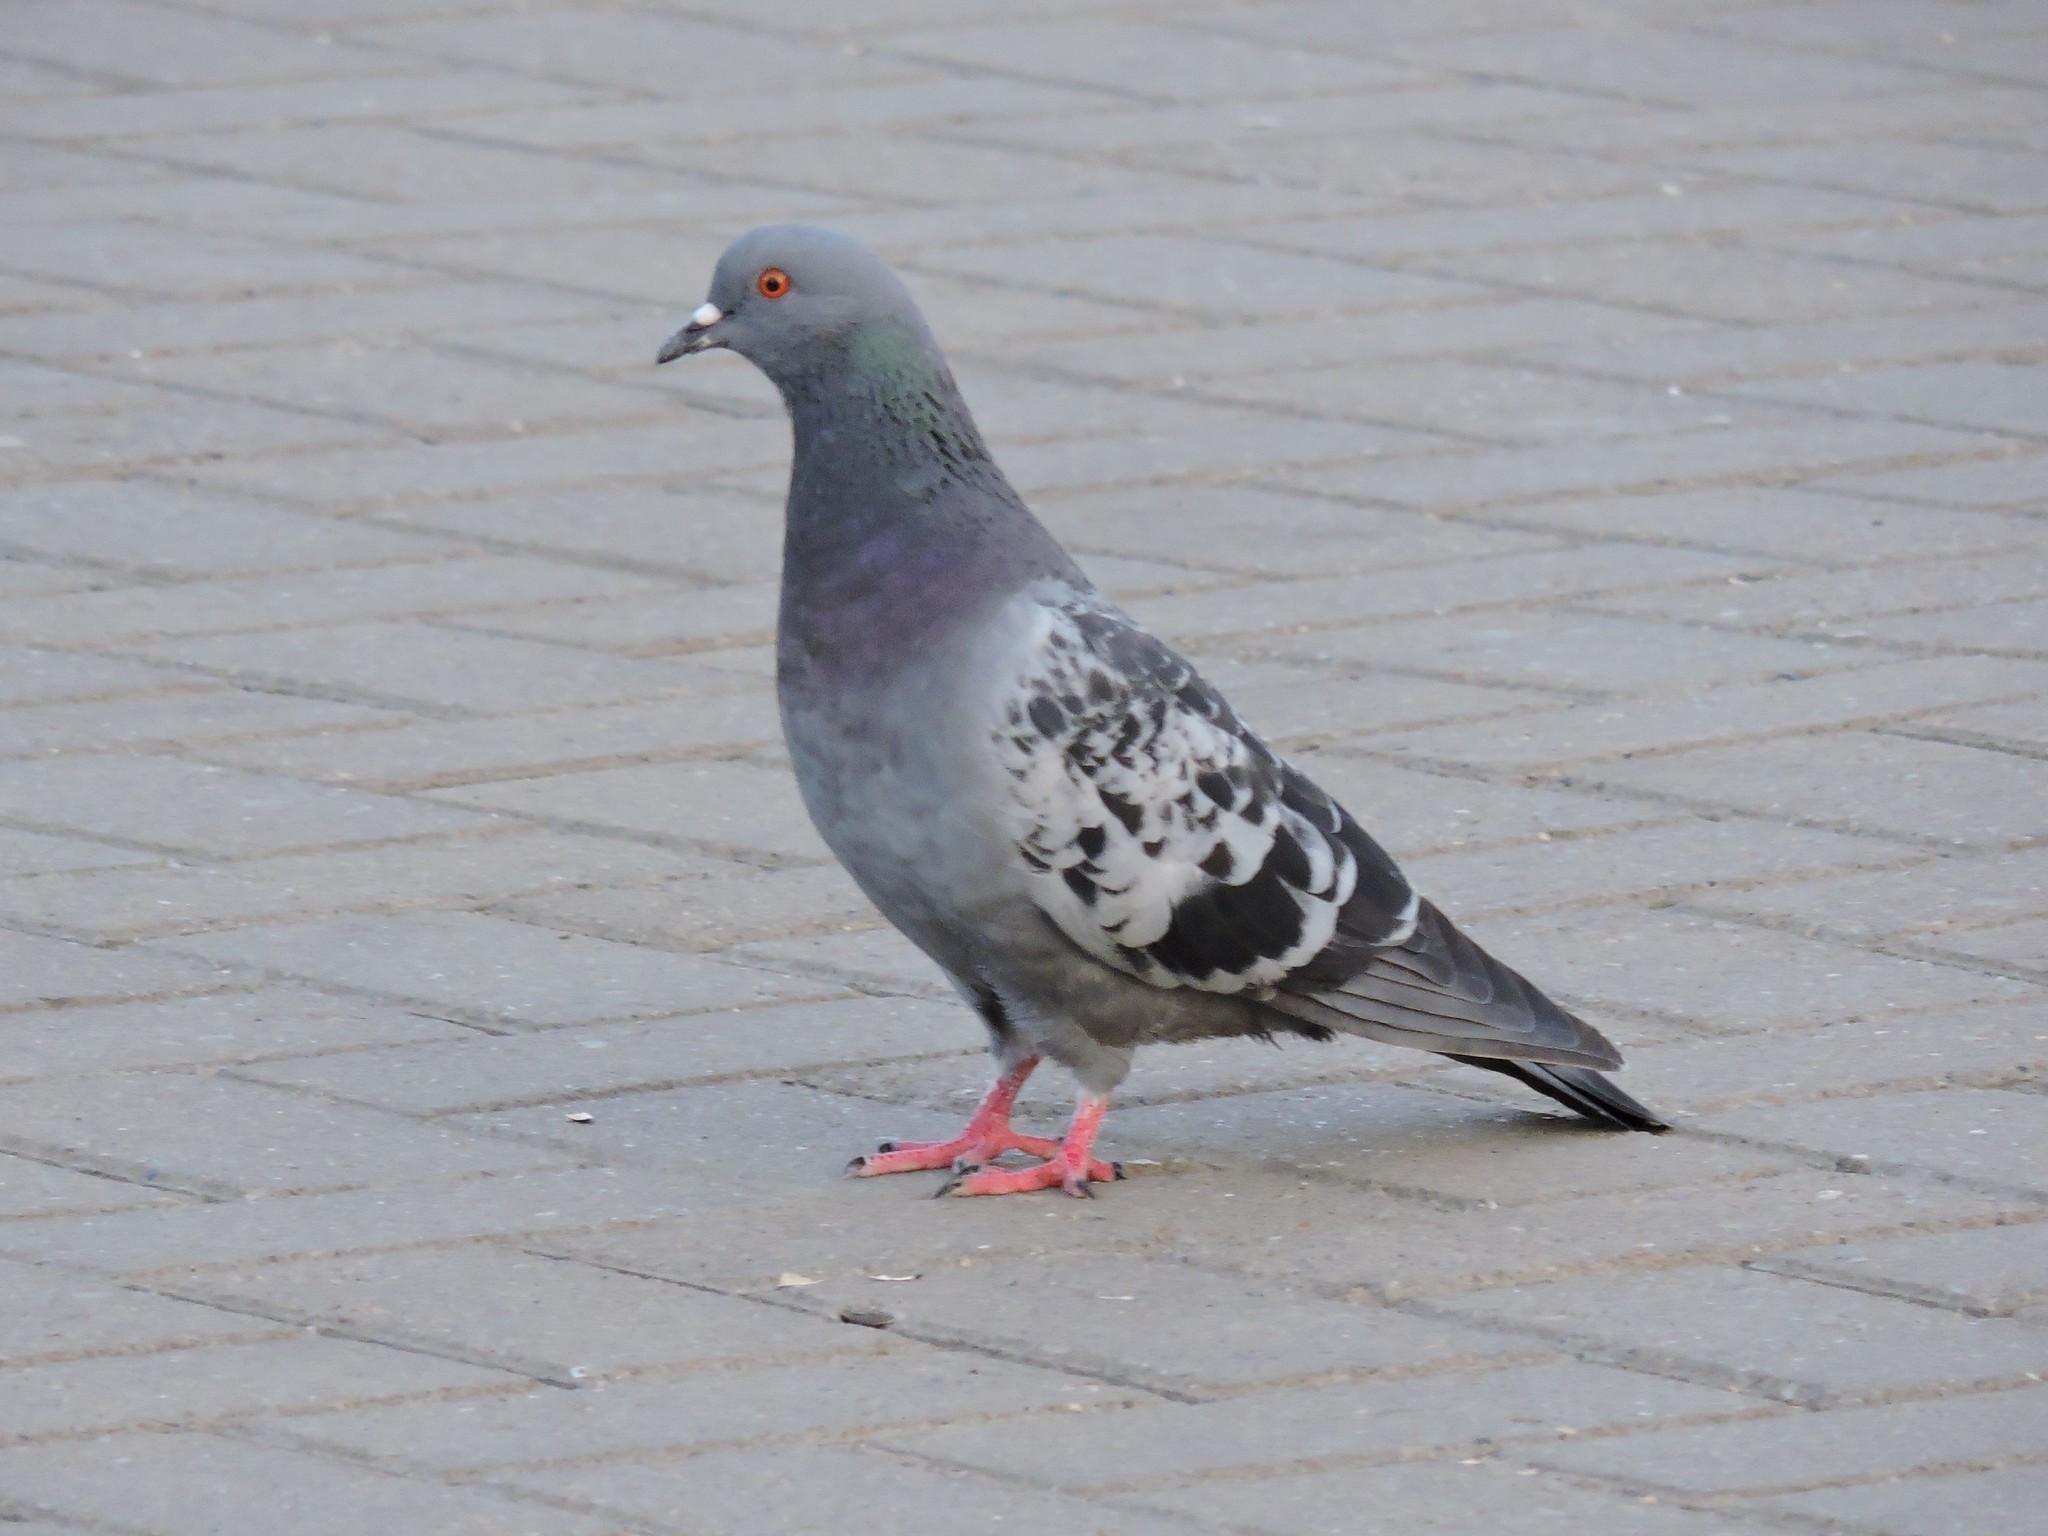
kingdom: Animalia
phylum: Chordata
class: Aves
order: Columbiformes
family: Columbidae
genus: Columba
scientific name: Columba livia
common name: Rock pigeon
